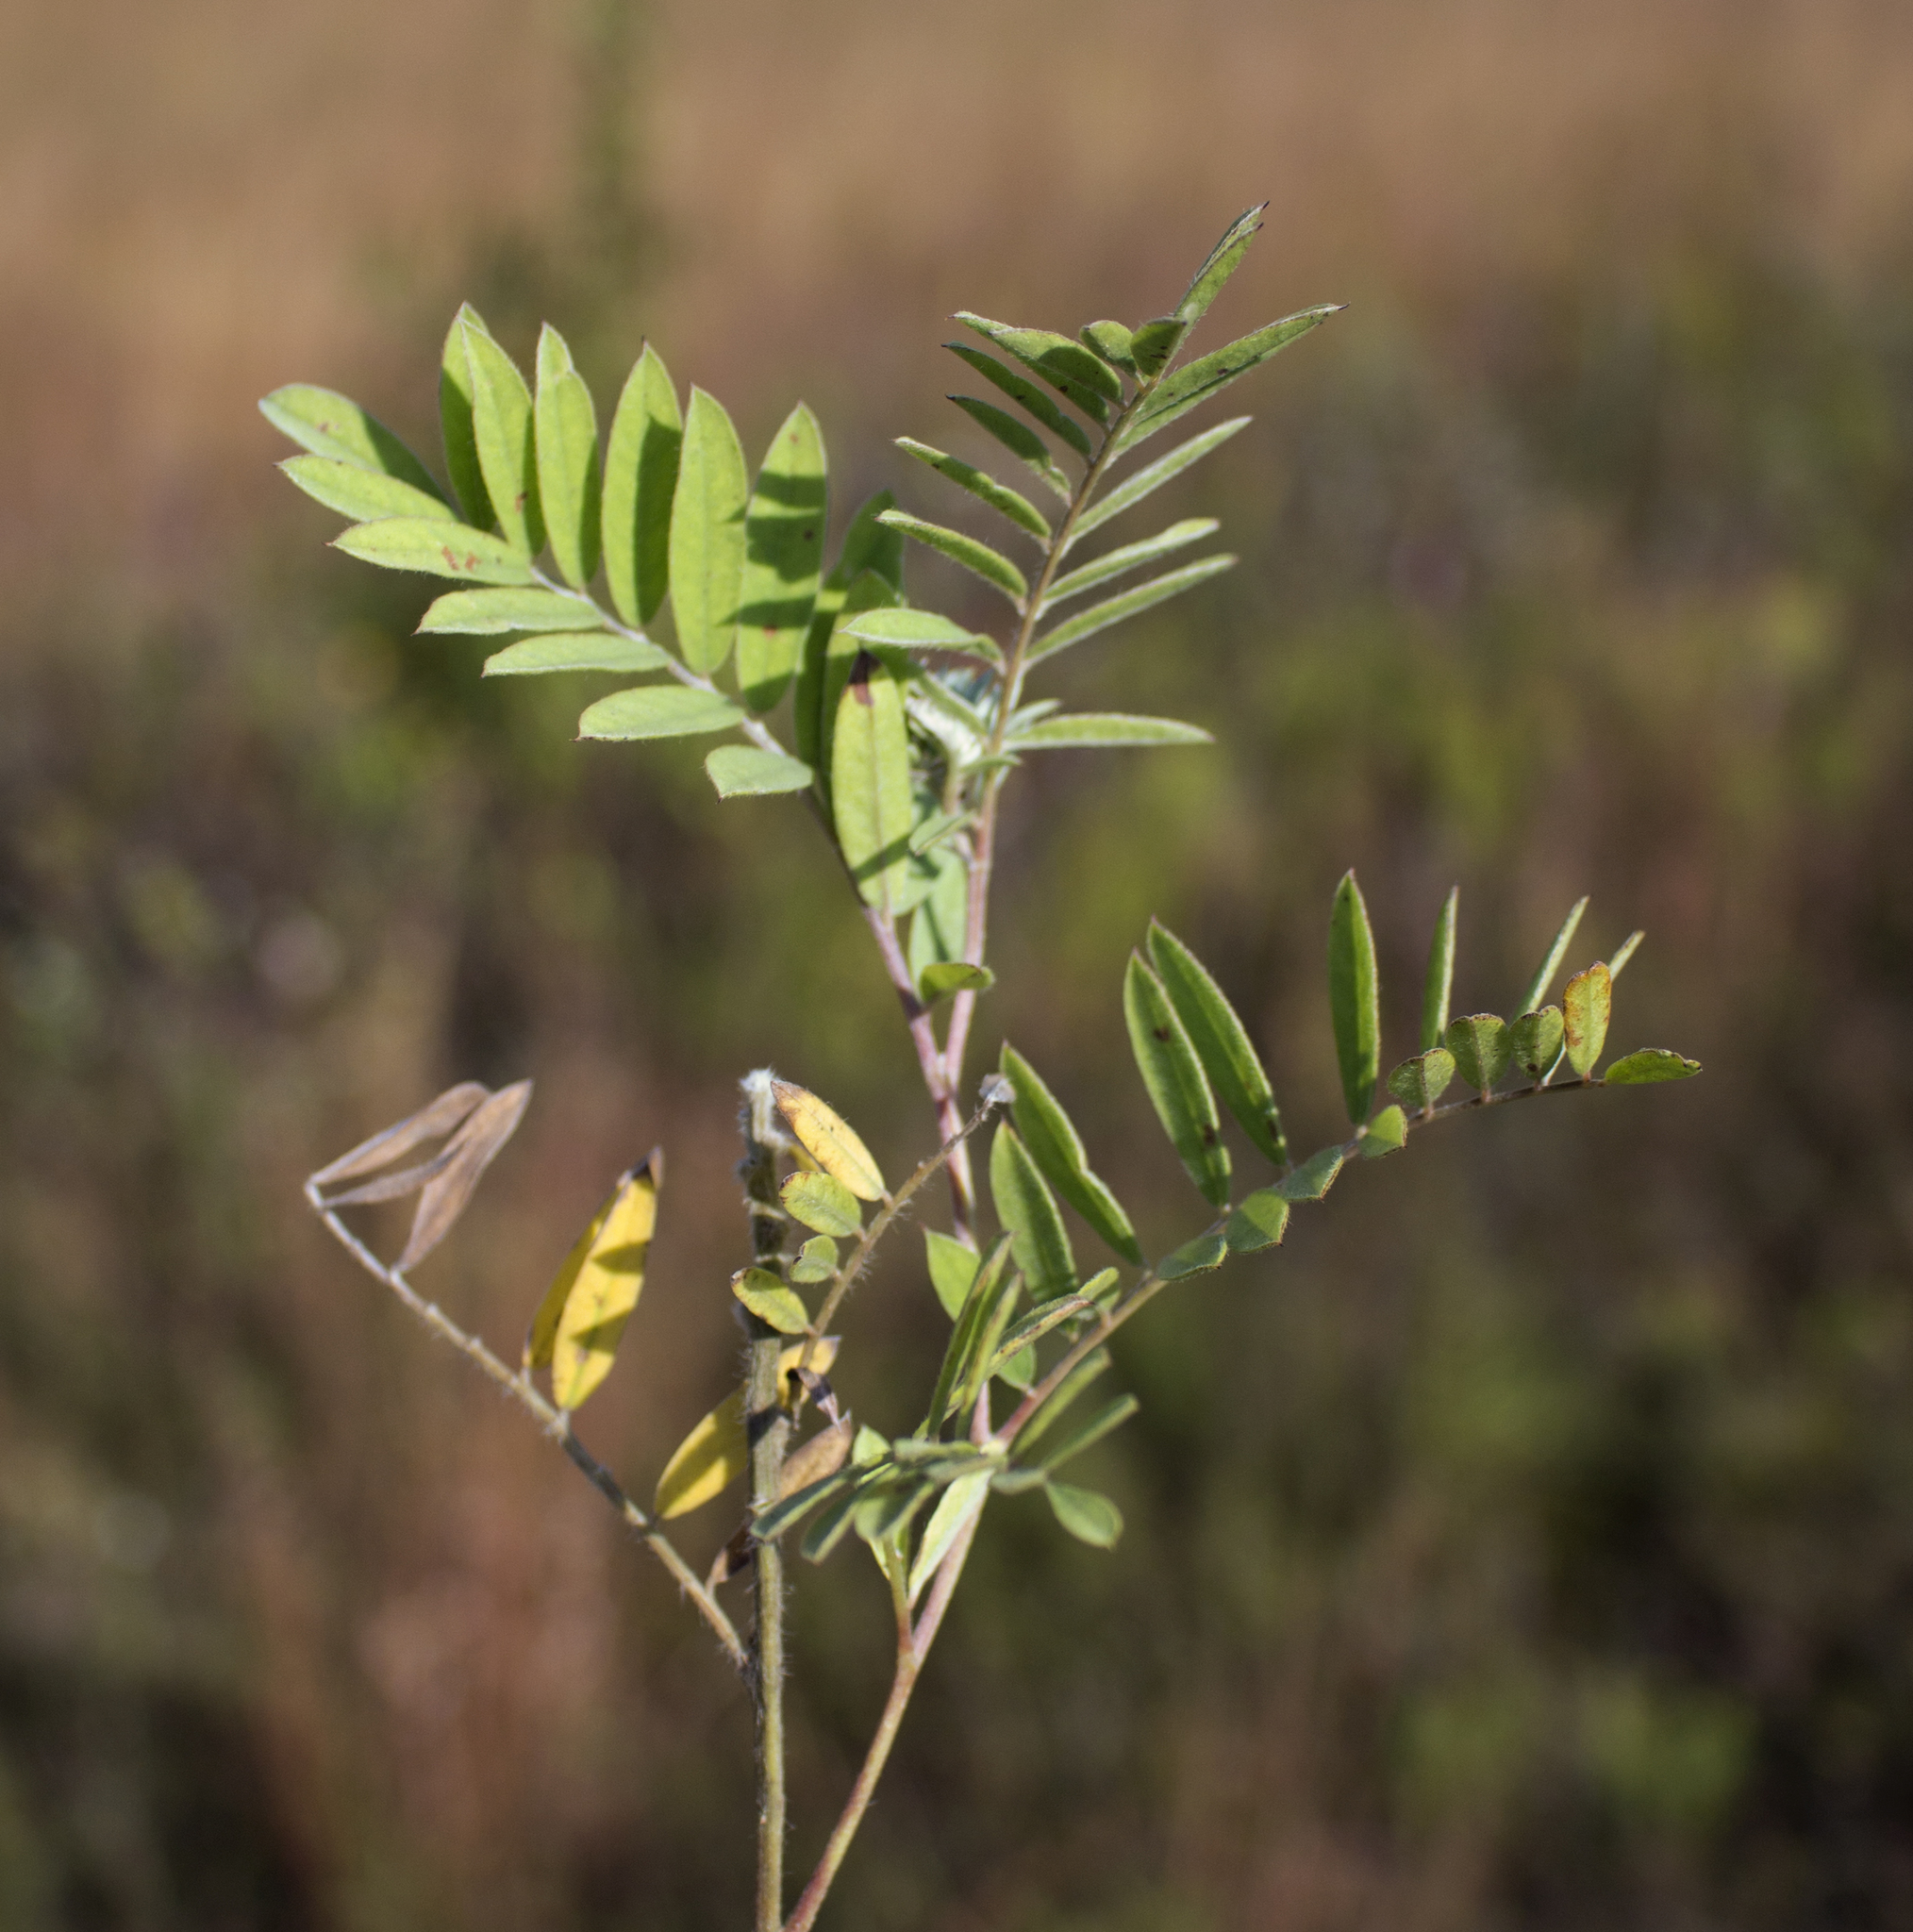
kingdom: Plantae
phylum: Tracheophyta
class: Magnoliopsida
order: Fabales
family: Fabaceae
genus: Tephrosia
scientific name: Tephrosia virginiana
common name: Rabbit-pea
